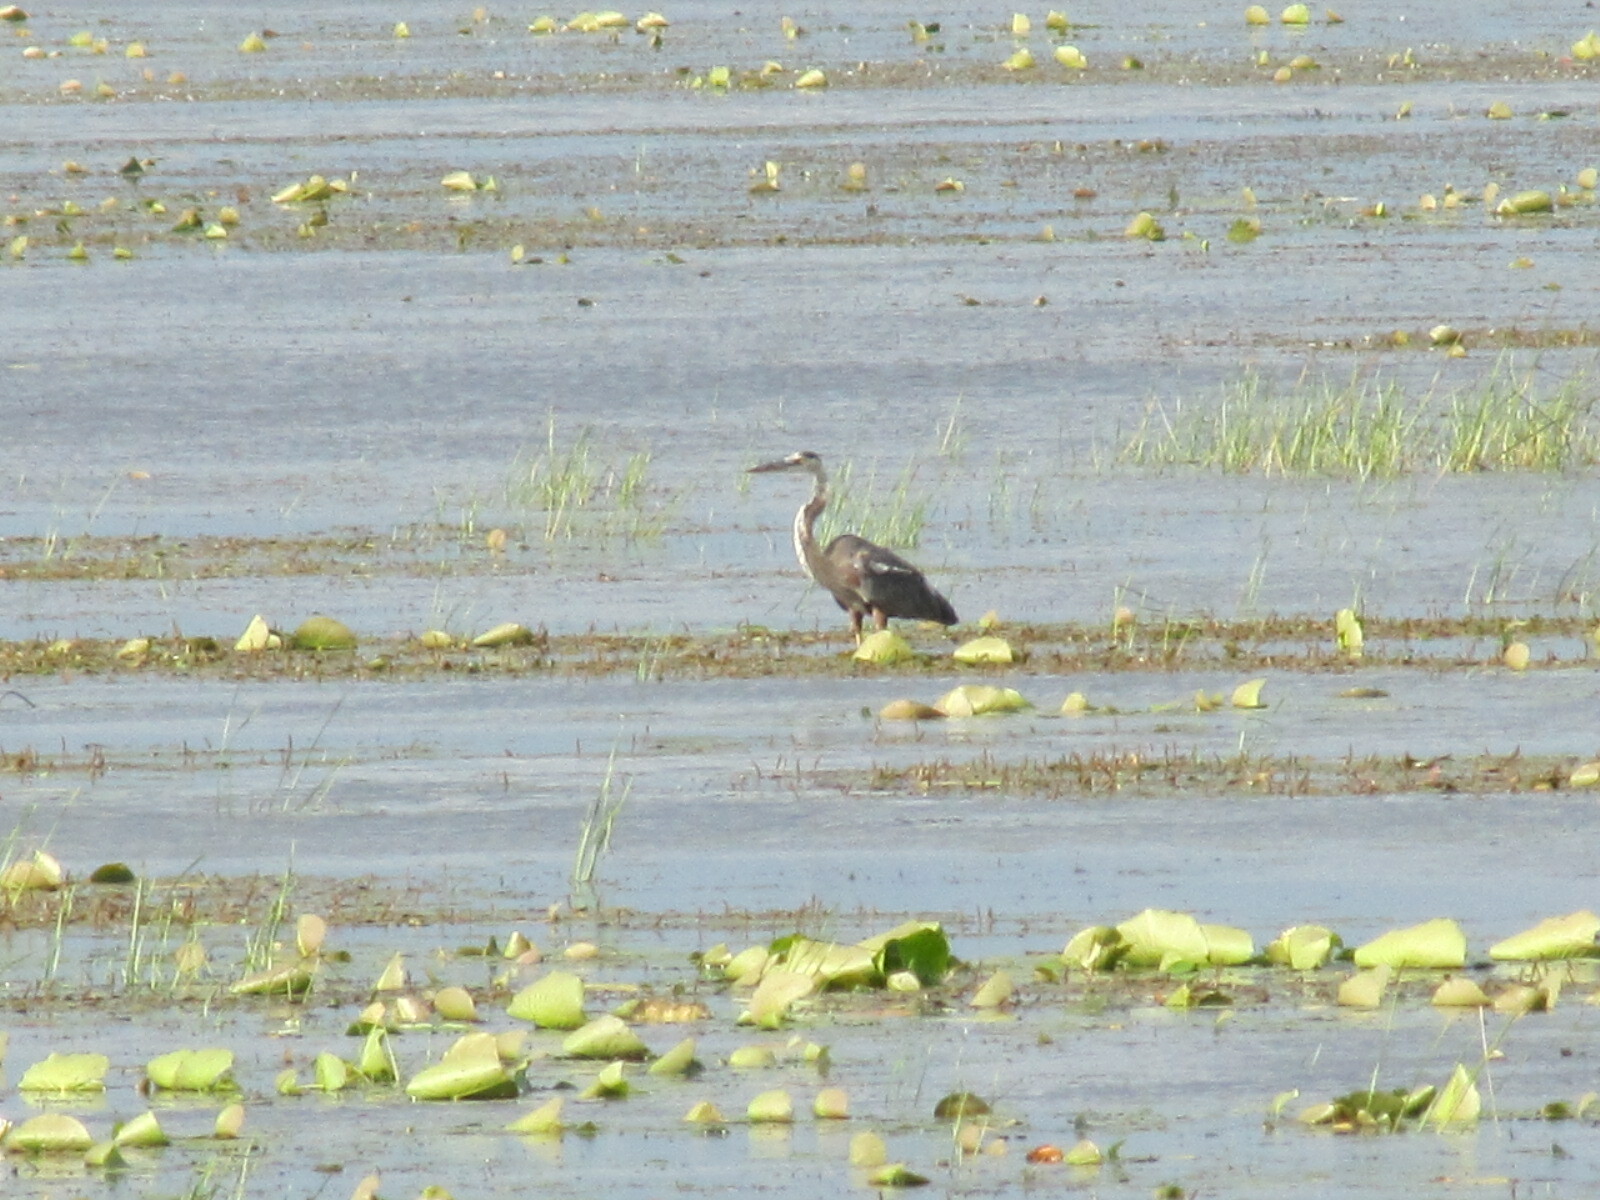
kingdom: Animalia
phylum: Chordata
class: Aves
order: Pelecaniformes
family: Ardeidae
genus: Ardea
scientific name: Ardea herodias
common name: Great blue heron
